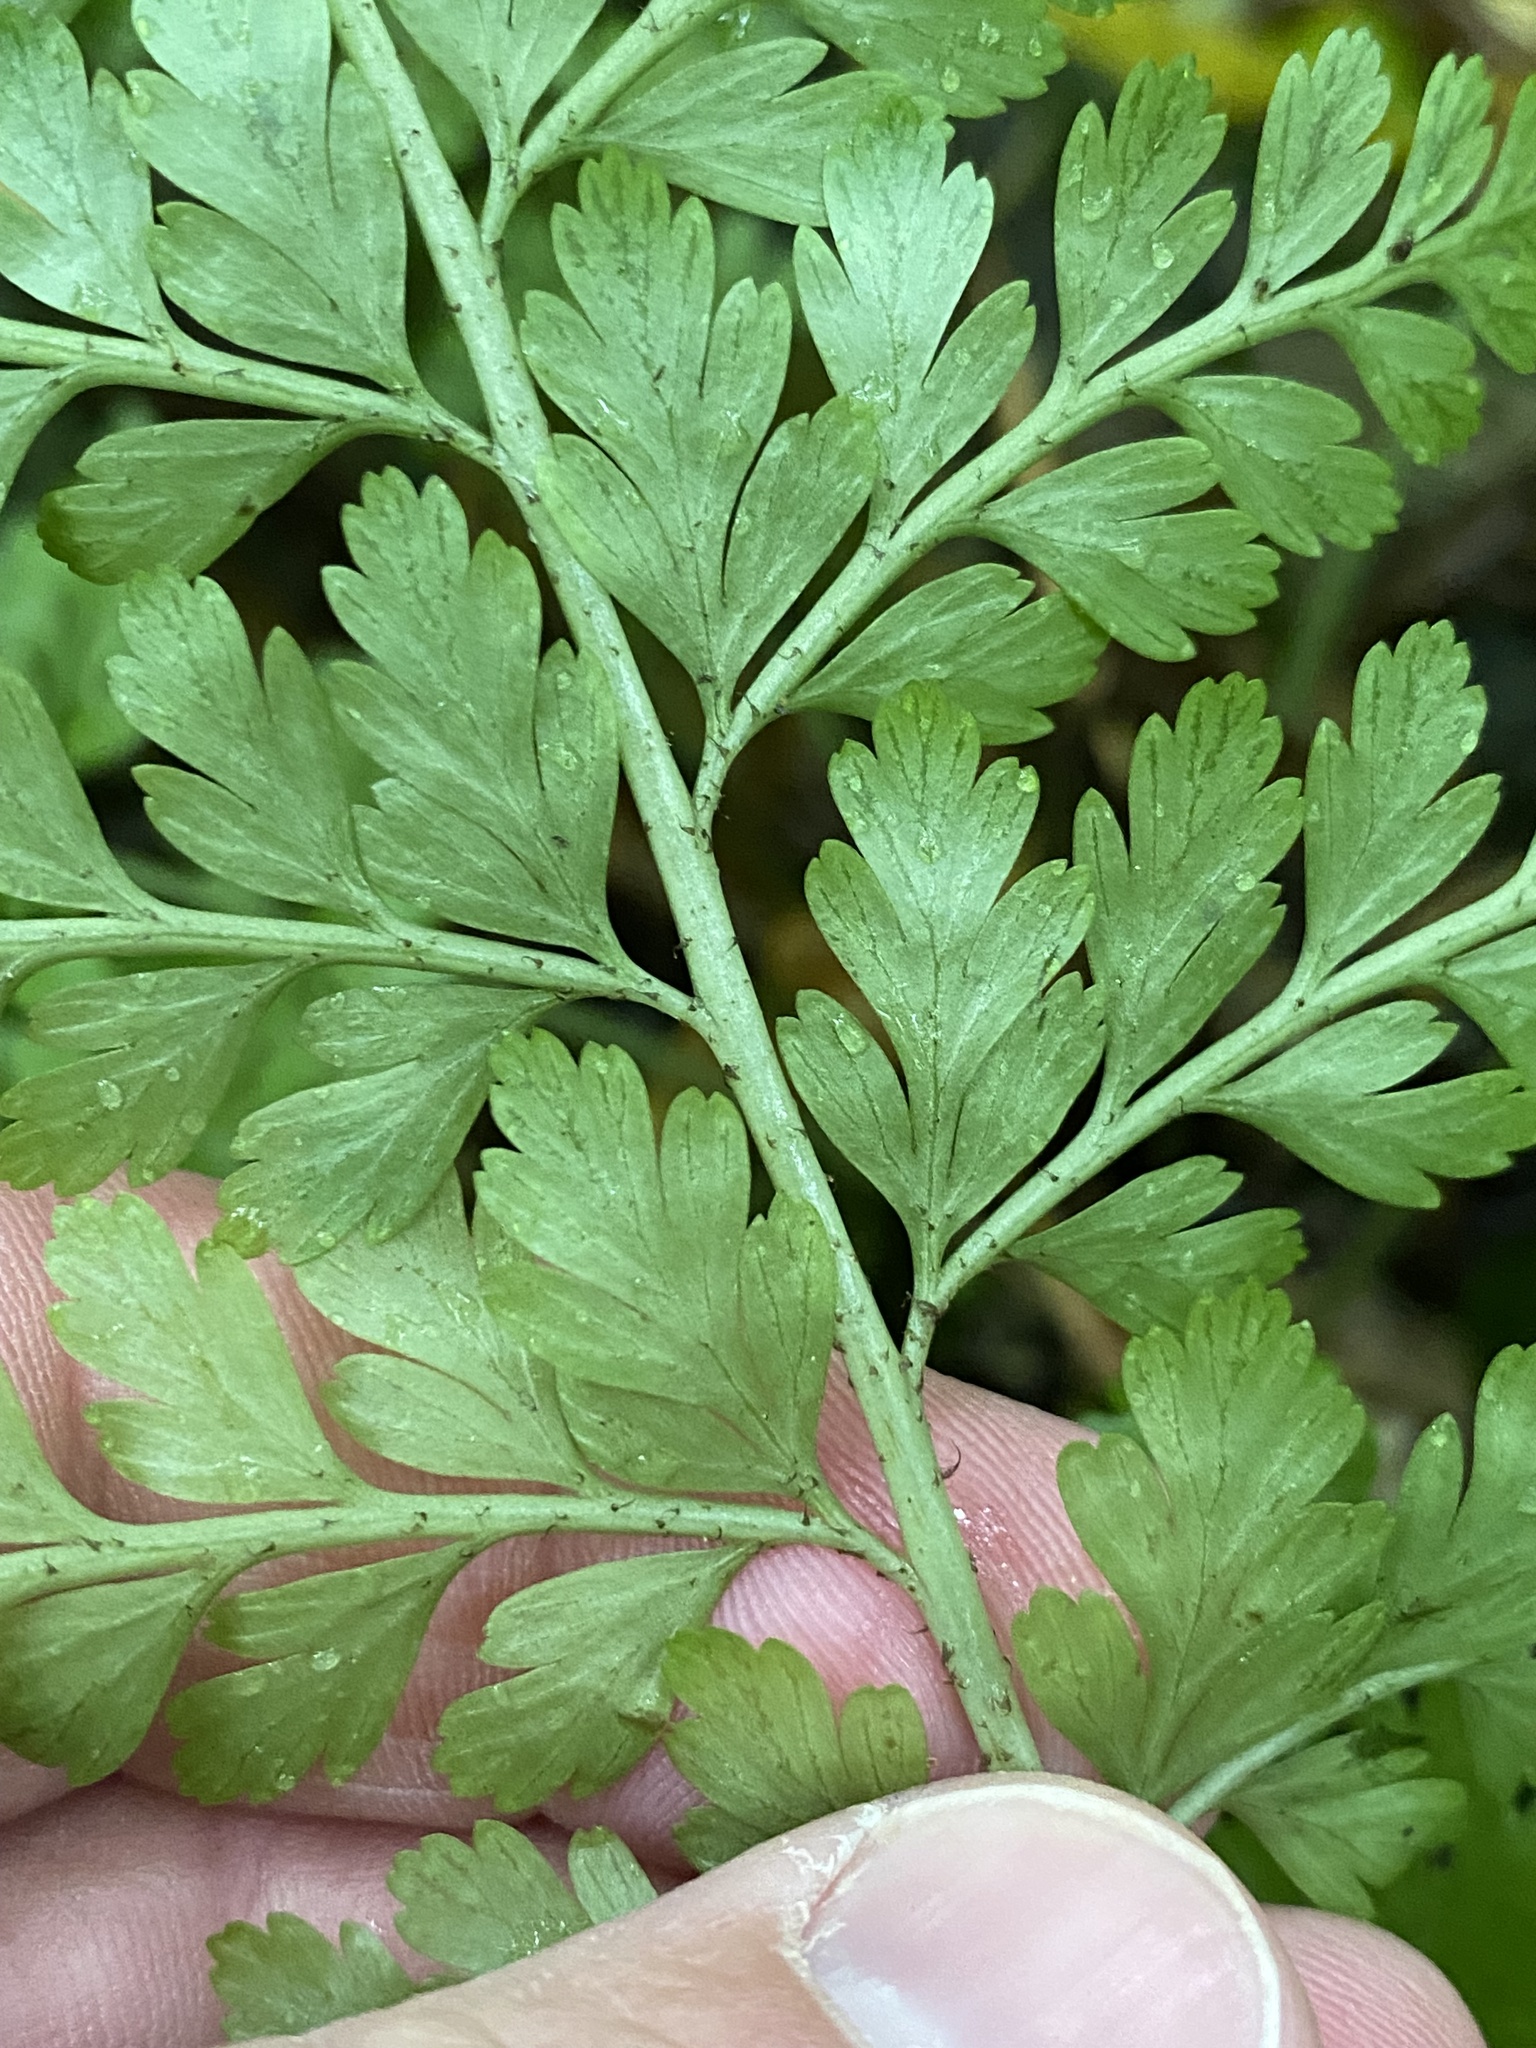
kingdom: Plantae
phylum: Tracheophyta
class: Polypodiopsida
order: Polypodiales
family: Aspleniaceae
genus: Asplenium
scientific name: Asplenium
